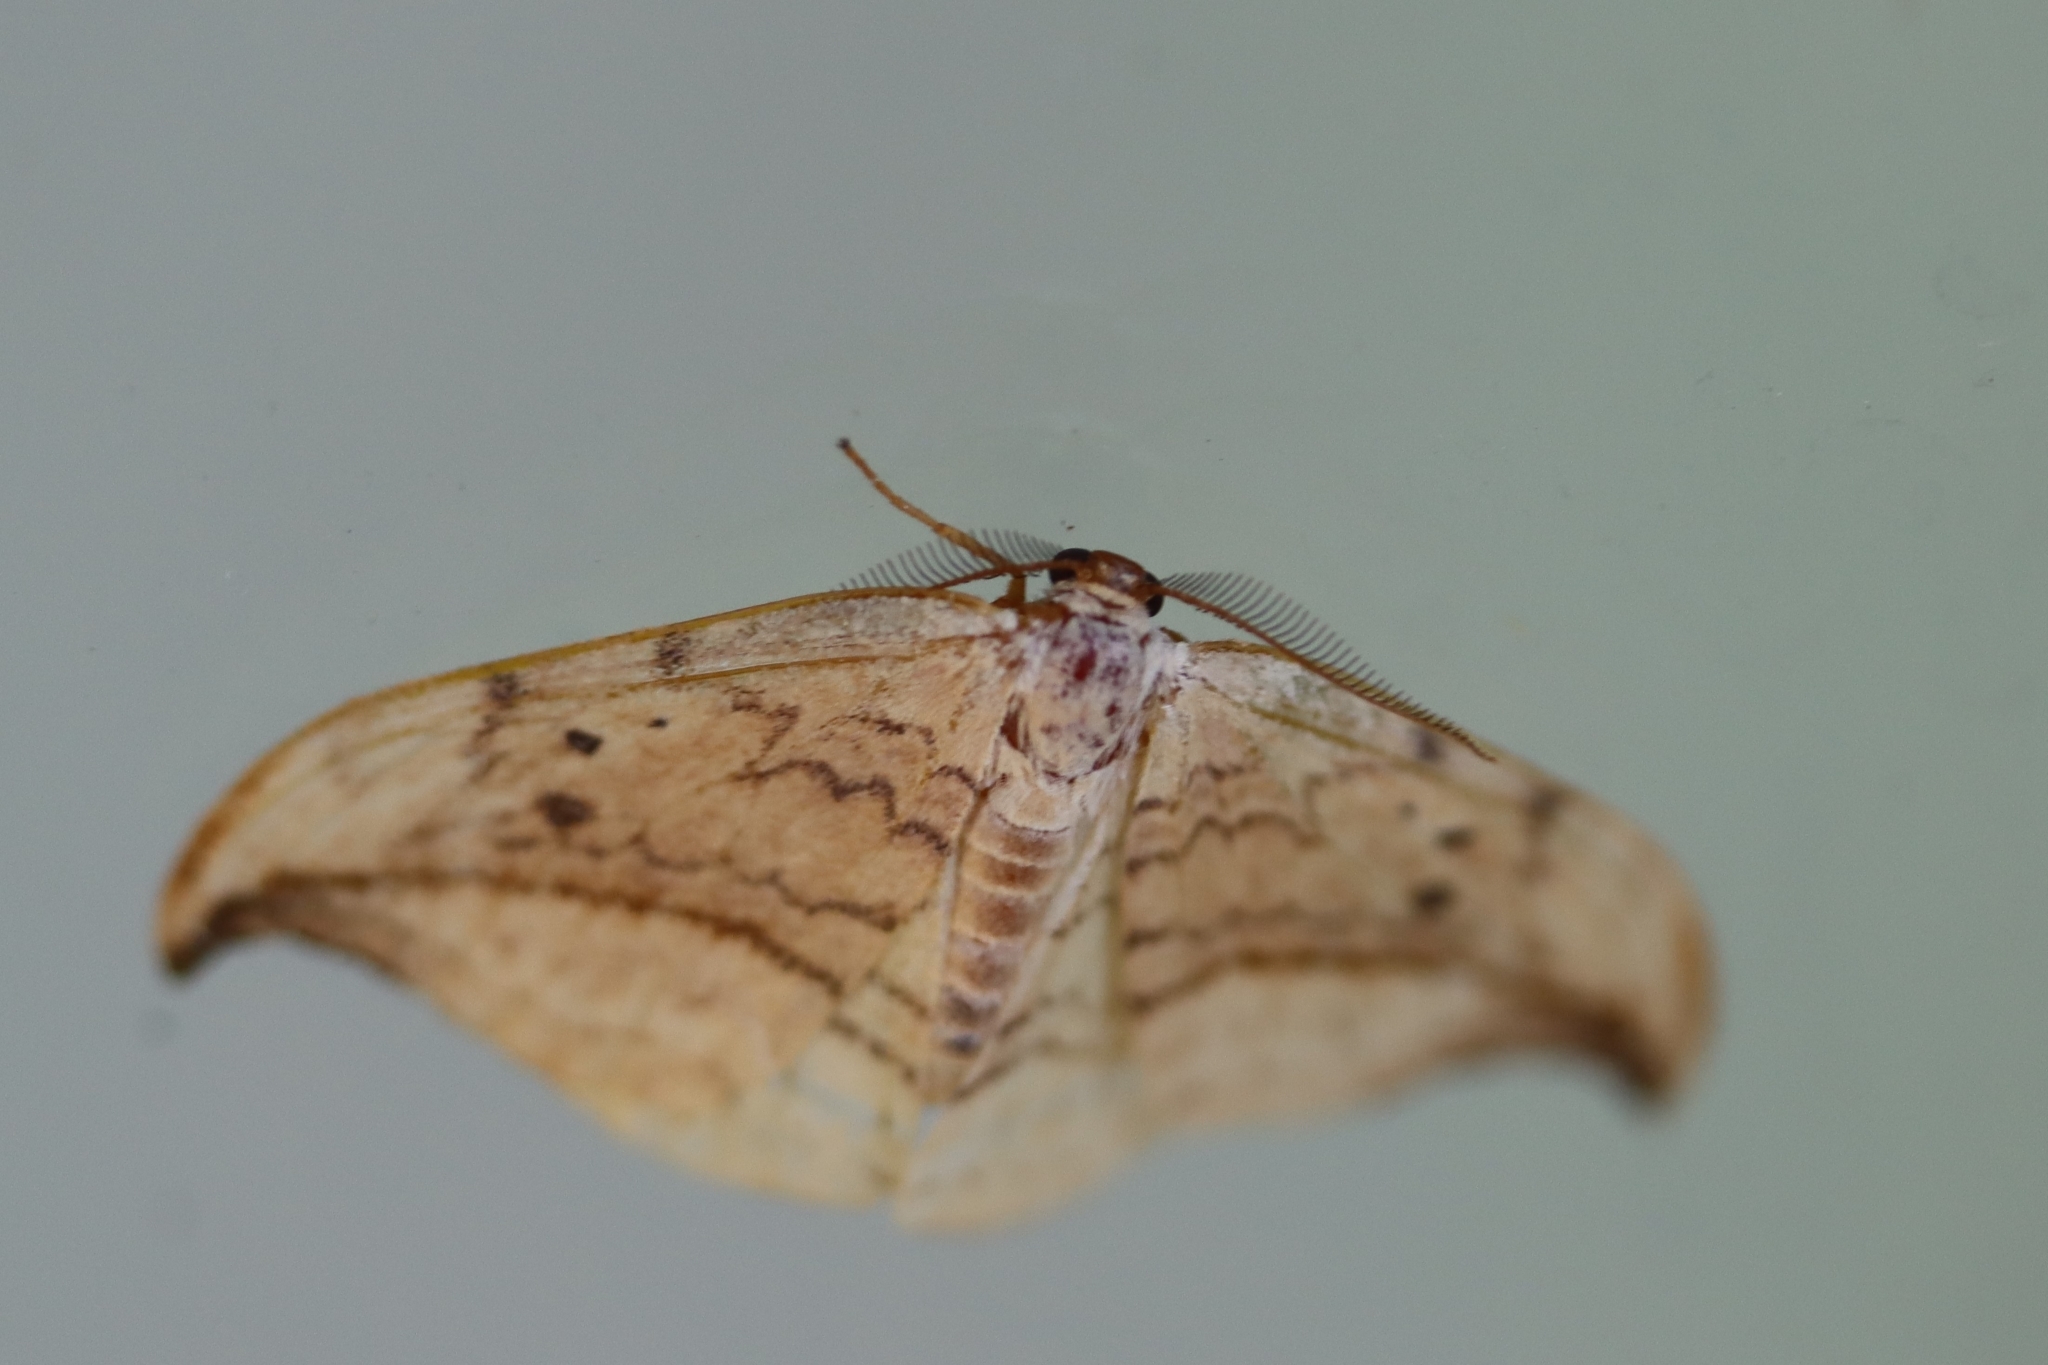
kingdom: Animalia
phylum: Arthropoda
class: Insecta
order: Lepidoptera
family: Drepanidae
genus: Drepana
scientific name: Drepana arcuata
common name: Arched hooktip moth
